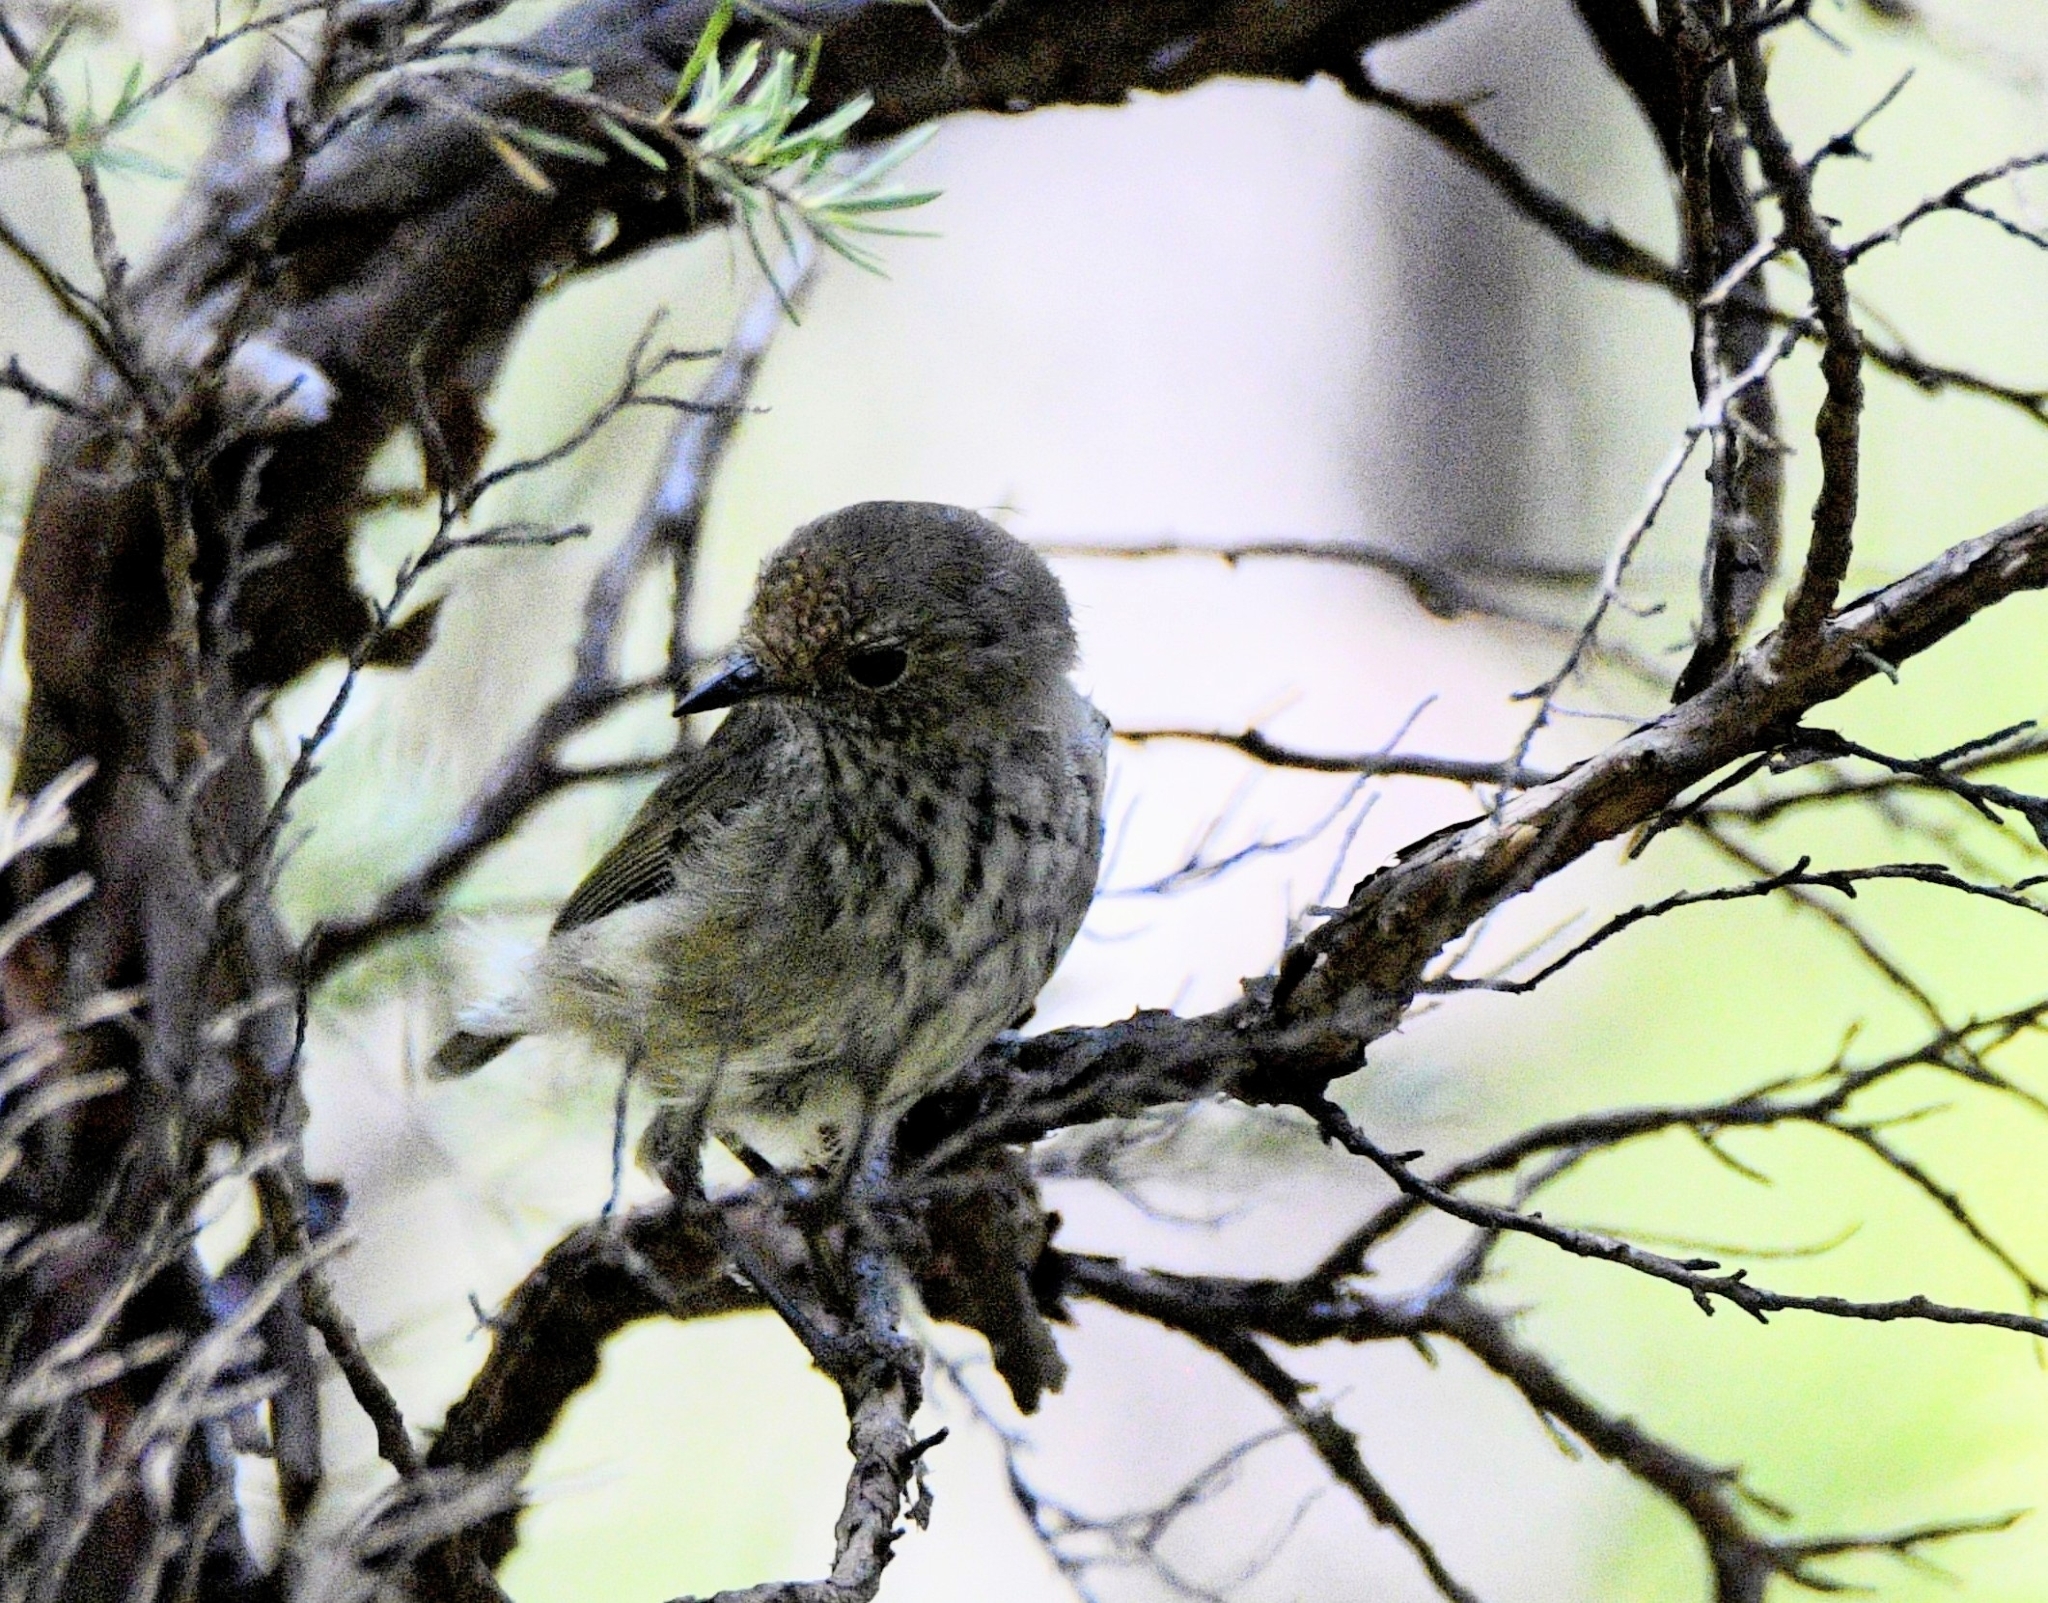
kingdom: Animalia
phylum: Chordata
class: Aves
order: Passeriformes
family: Acanthizidae
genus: Acanthiza
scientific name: Acanthiza pusilla
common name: Brown thornbill
